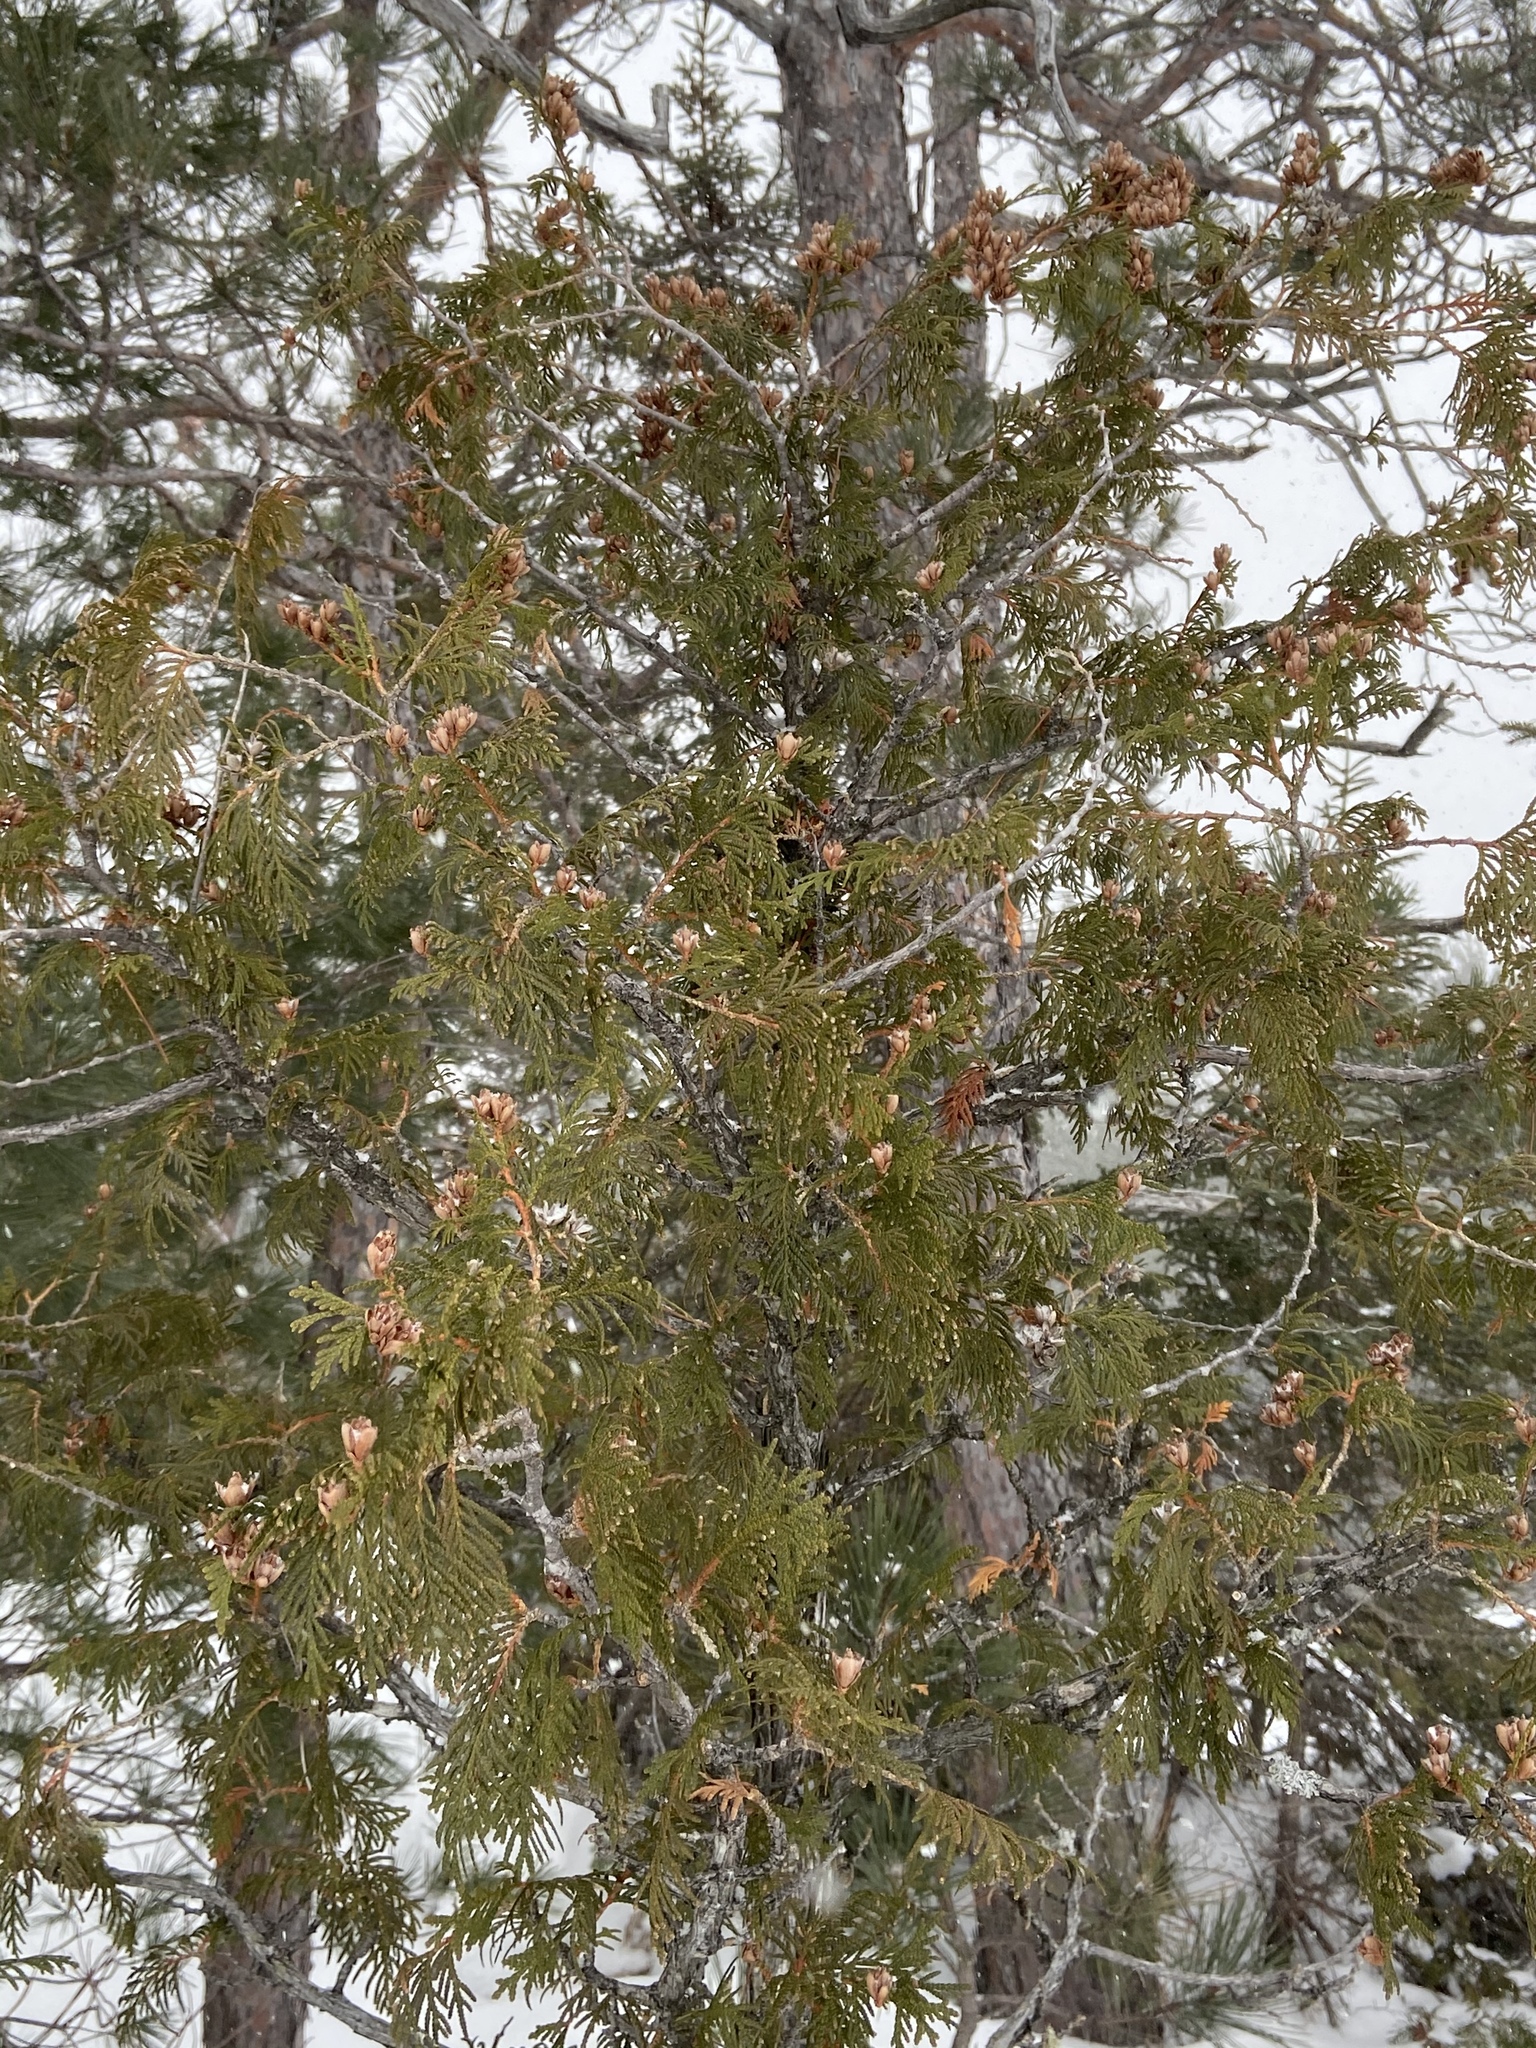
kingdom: Plantae
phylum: Tracheophyta
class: Pinopsida
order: Pinales
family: Cupressaceae
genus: Thuja
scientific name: Thuja occidentalis
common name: Northern white-cedar
